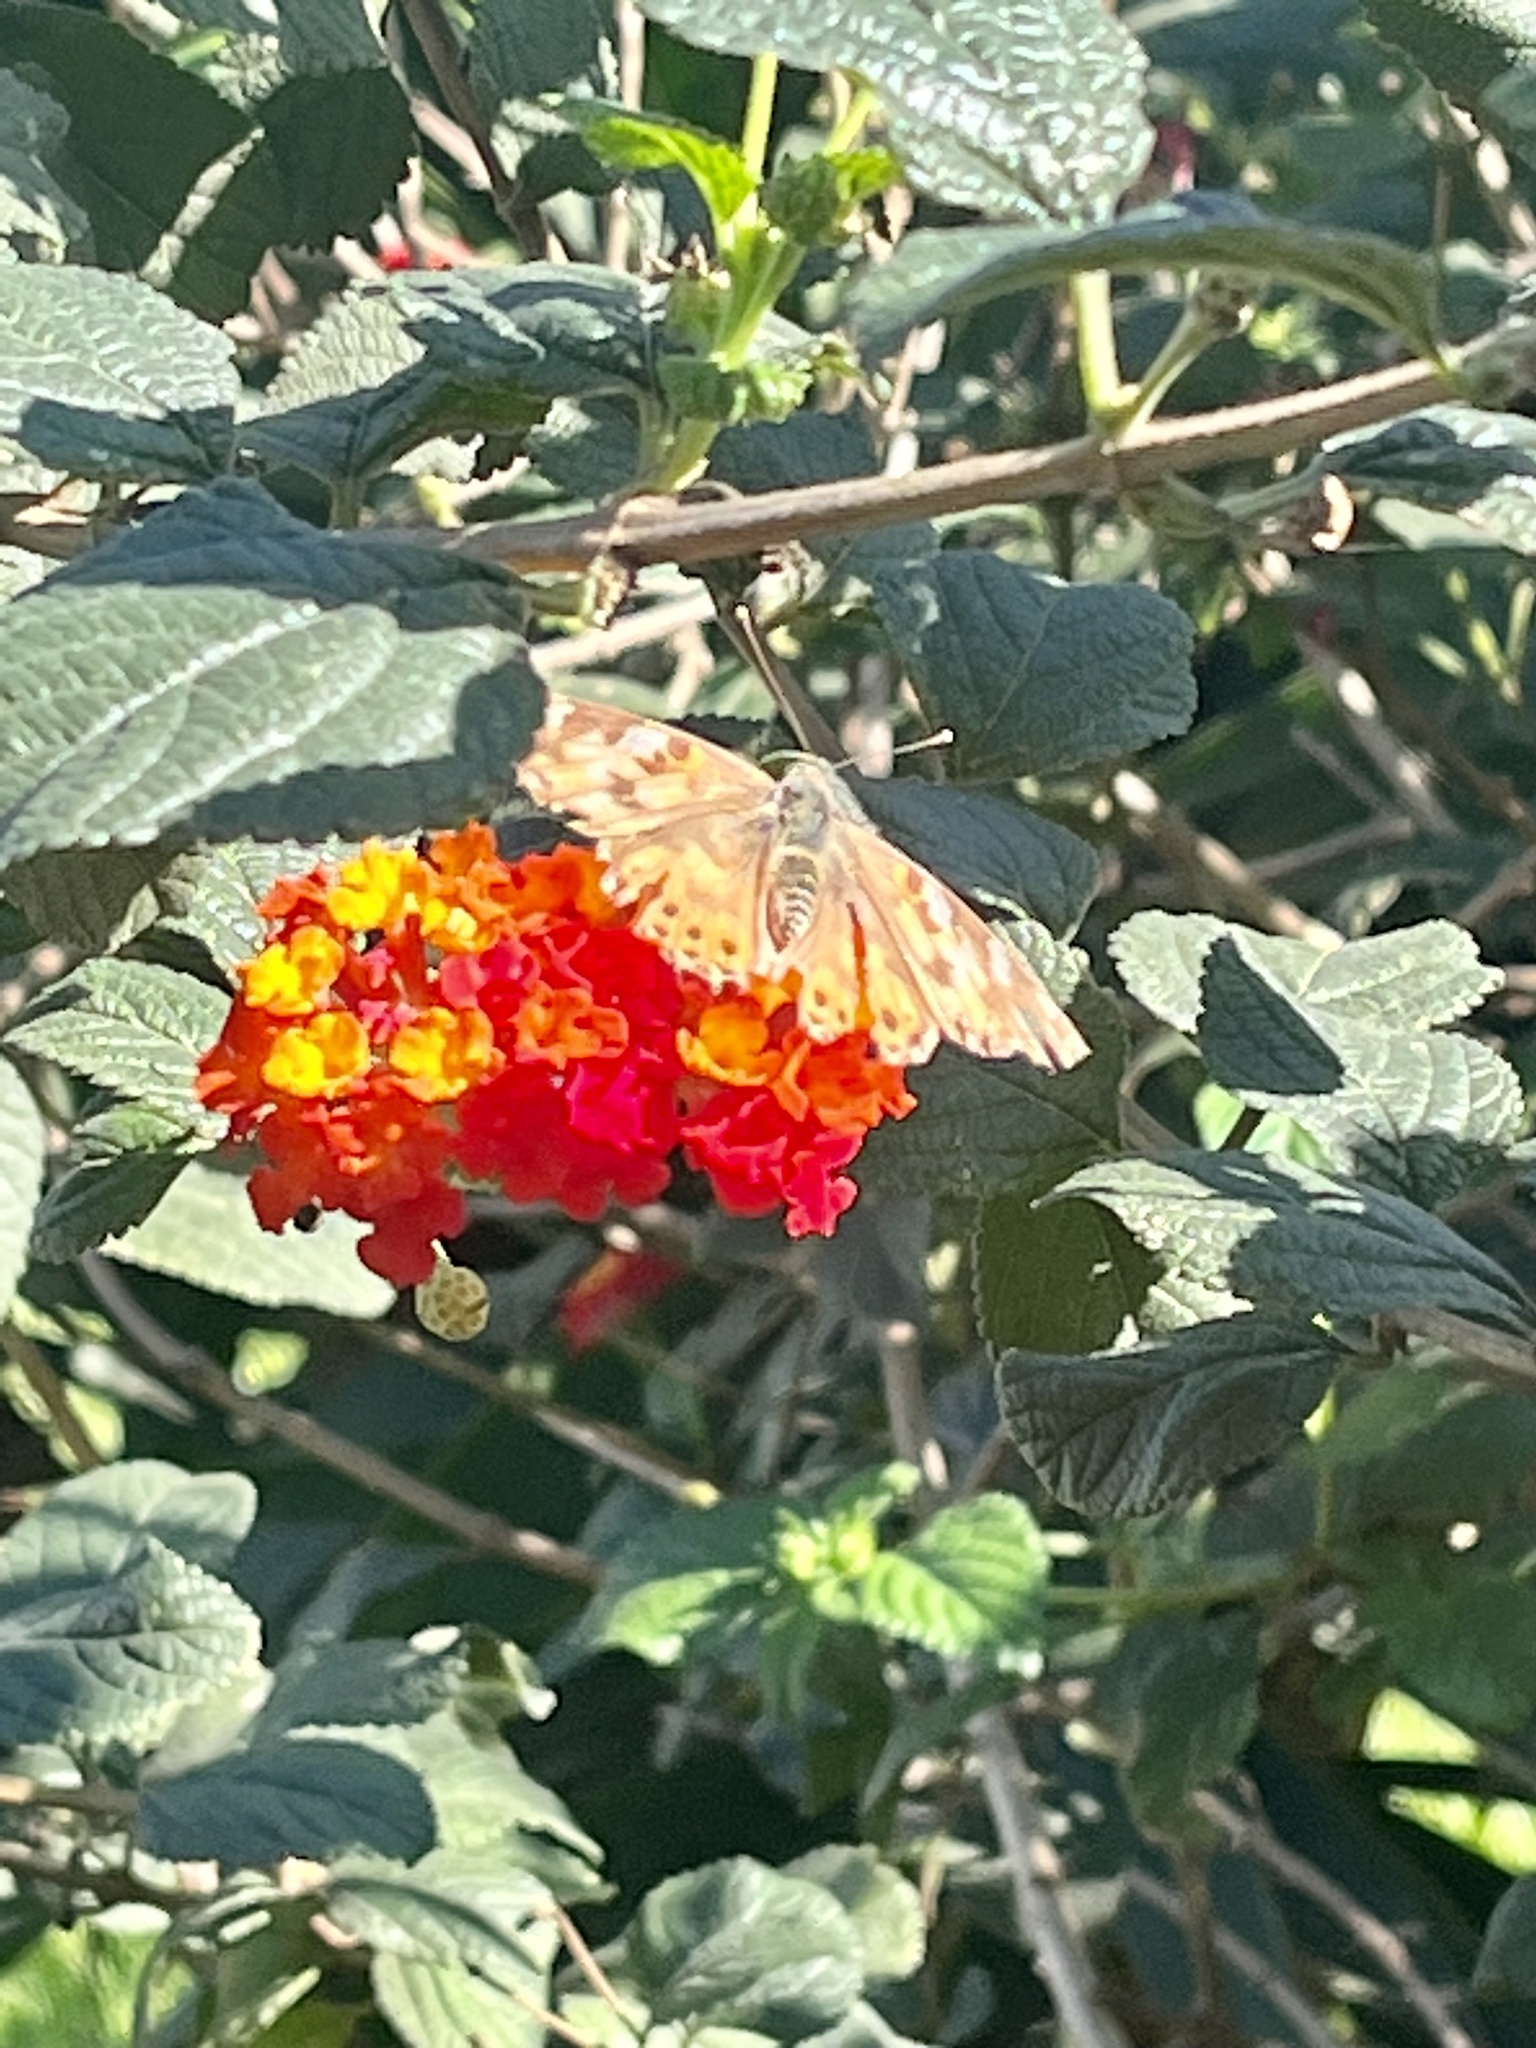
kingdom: Animalia
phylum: Arthropoda
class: Insecta
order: Lepidoptera
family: Nymphalidae
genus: Vanessa
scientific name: Vanessa cardui
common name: Painted lady
